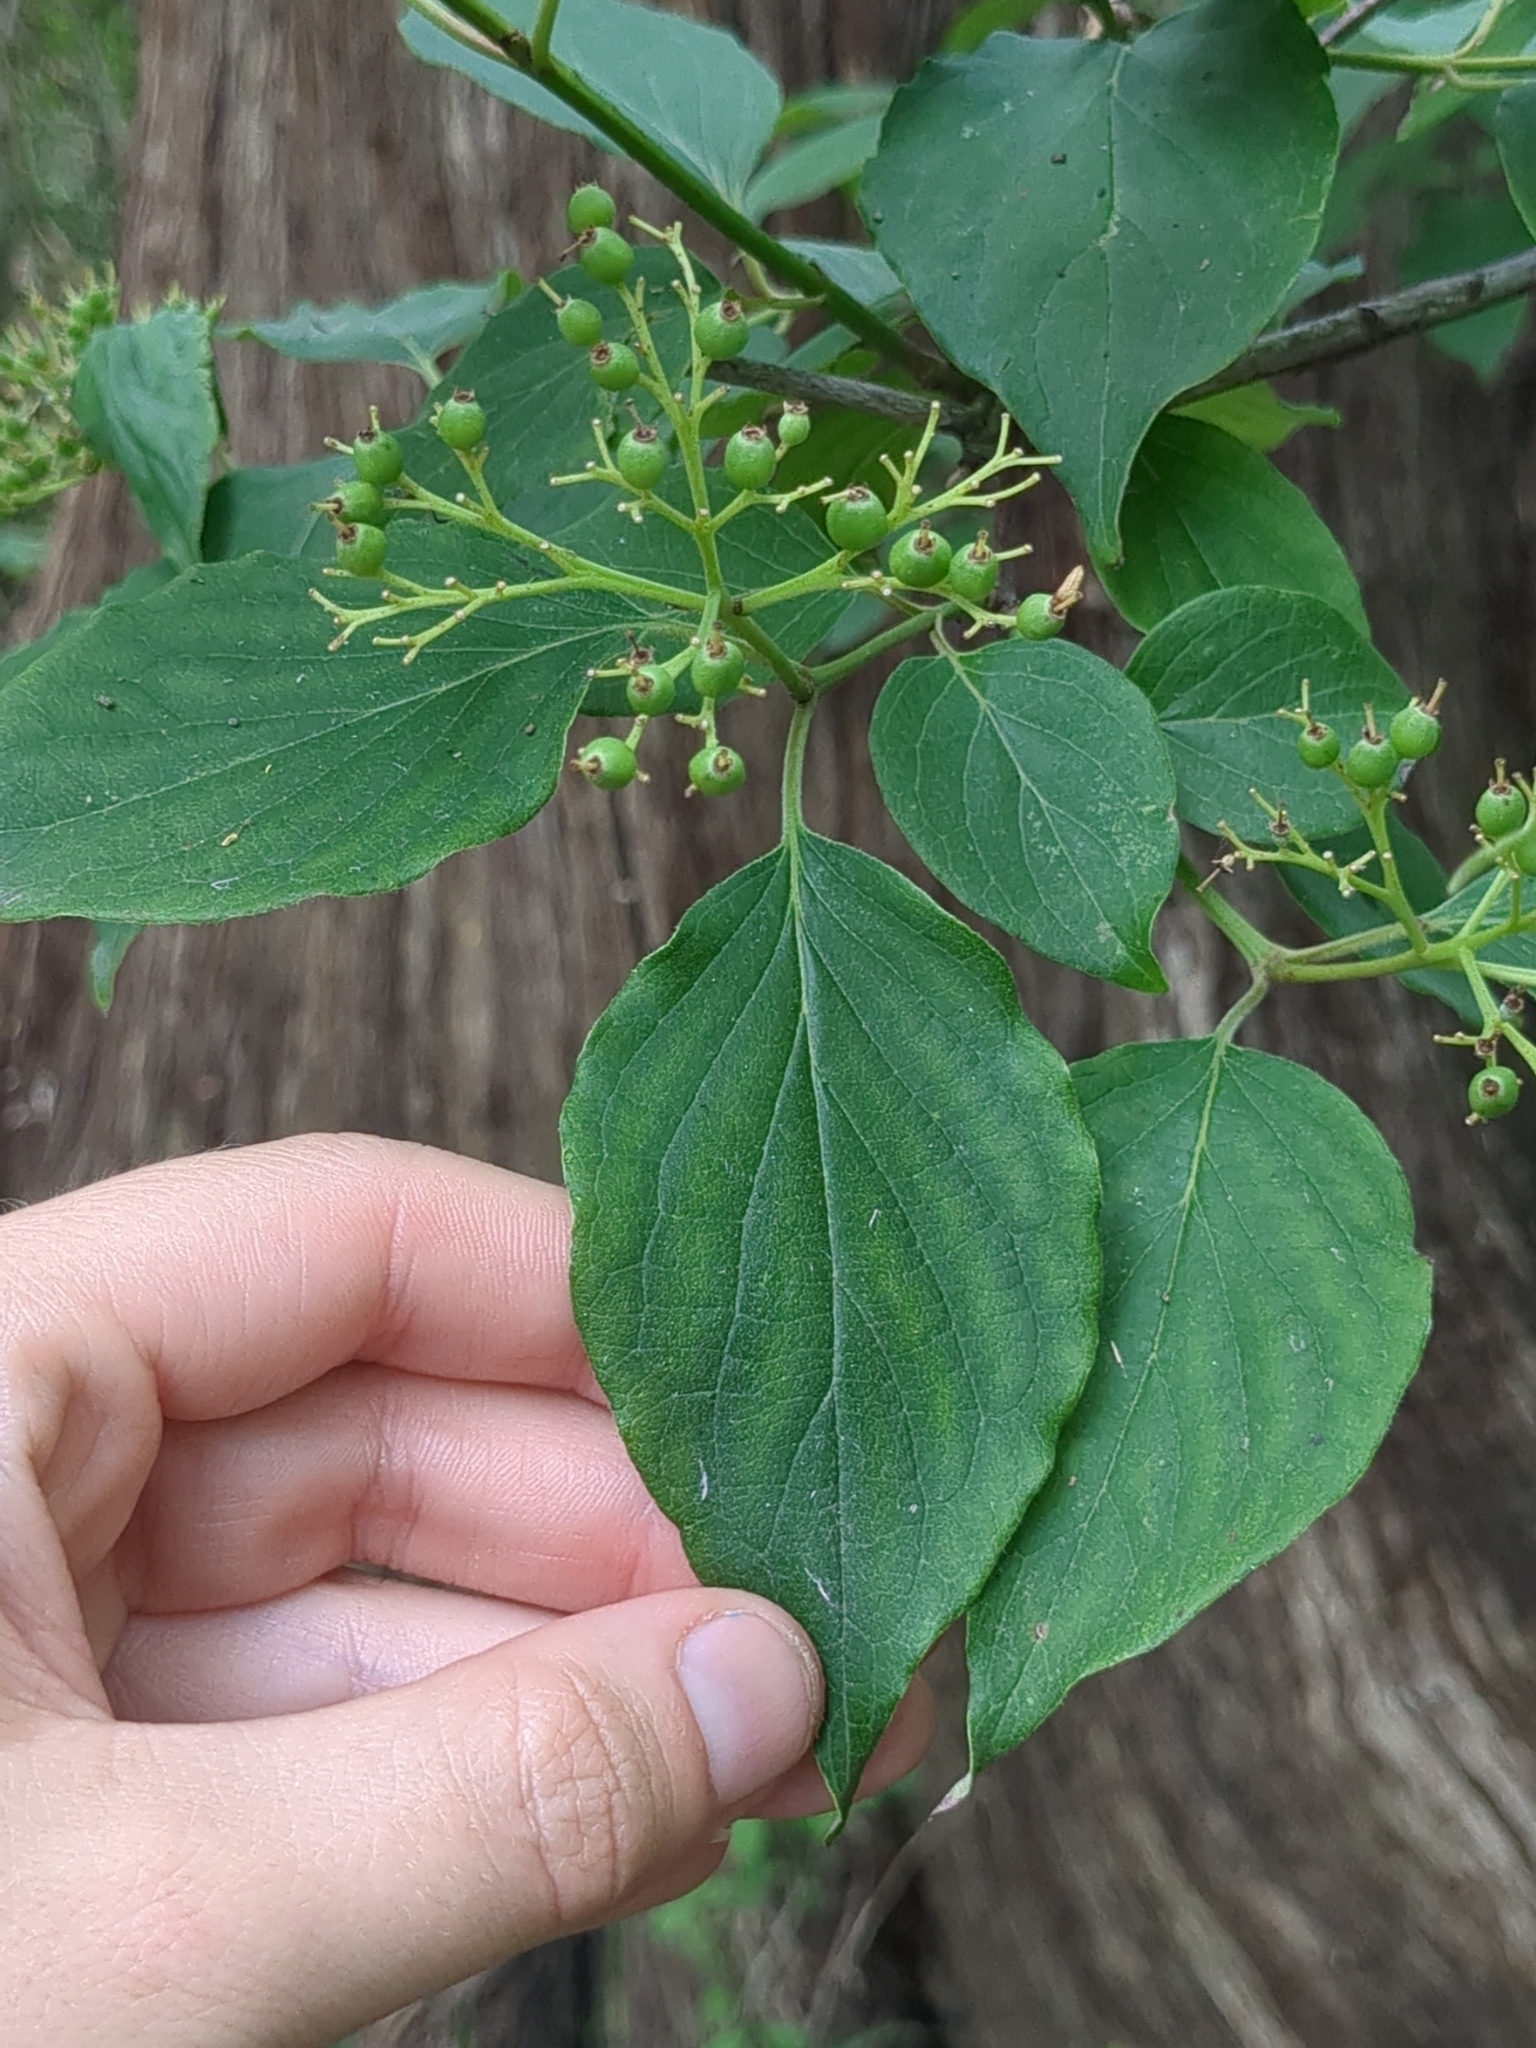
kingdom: Plantae
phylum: Tracheophyta
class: Magnoliopsida
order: Cornales
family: Cornaceae
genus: Cornus
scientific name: Cornus drummondii
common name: Rough-leaf dogwood
